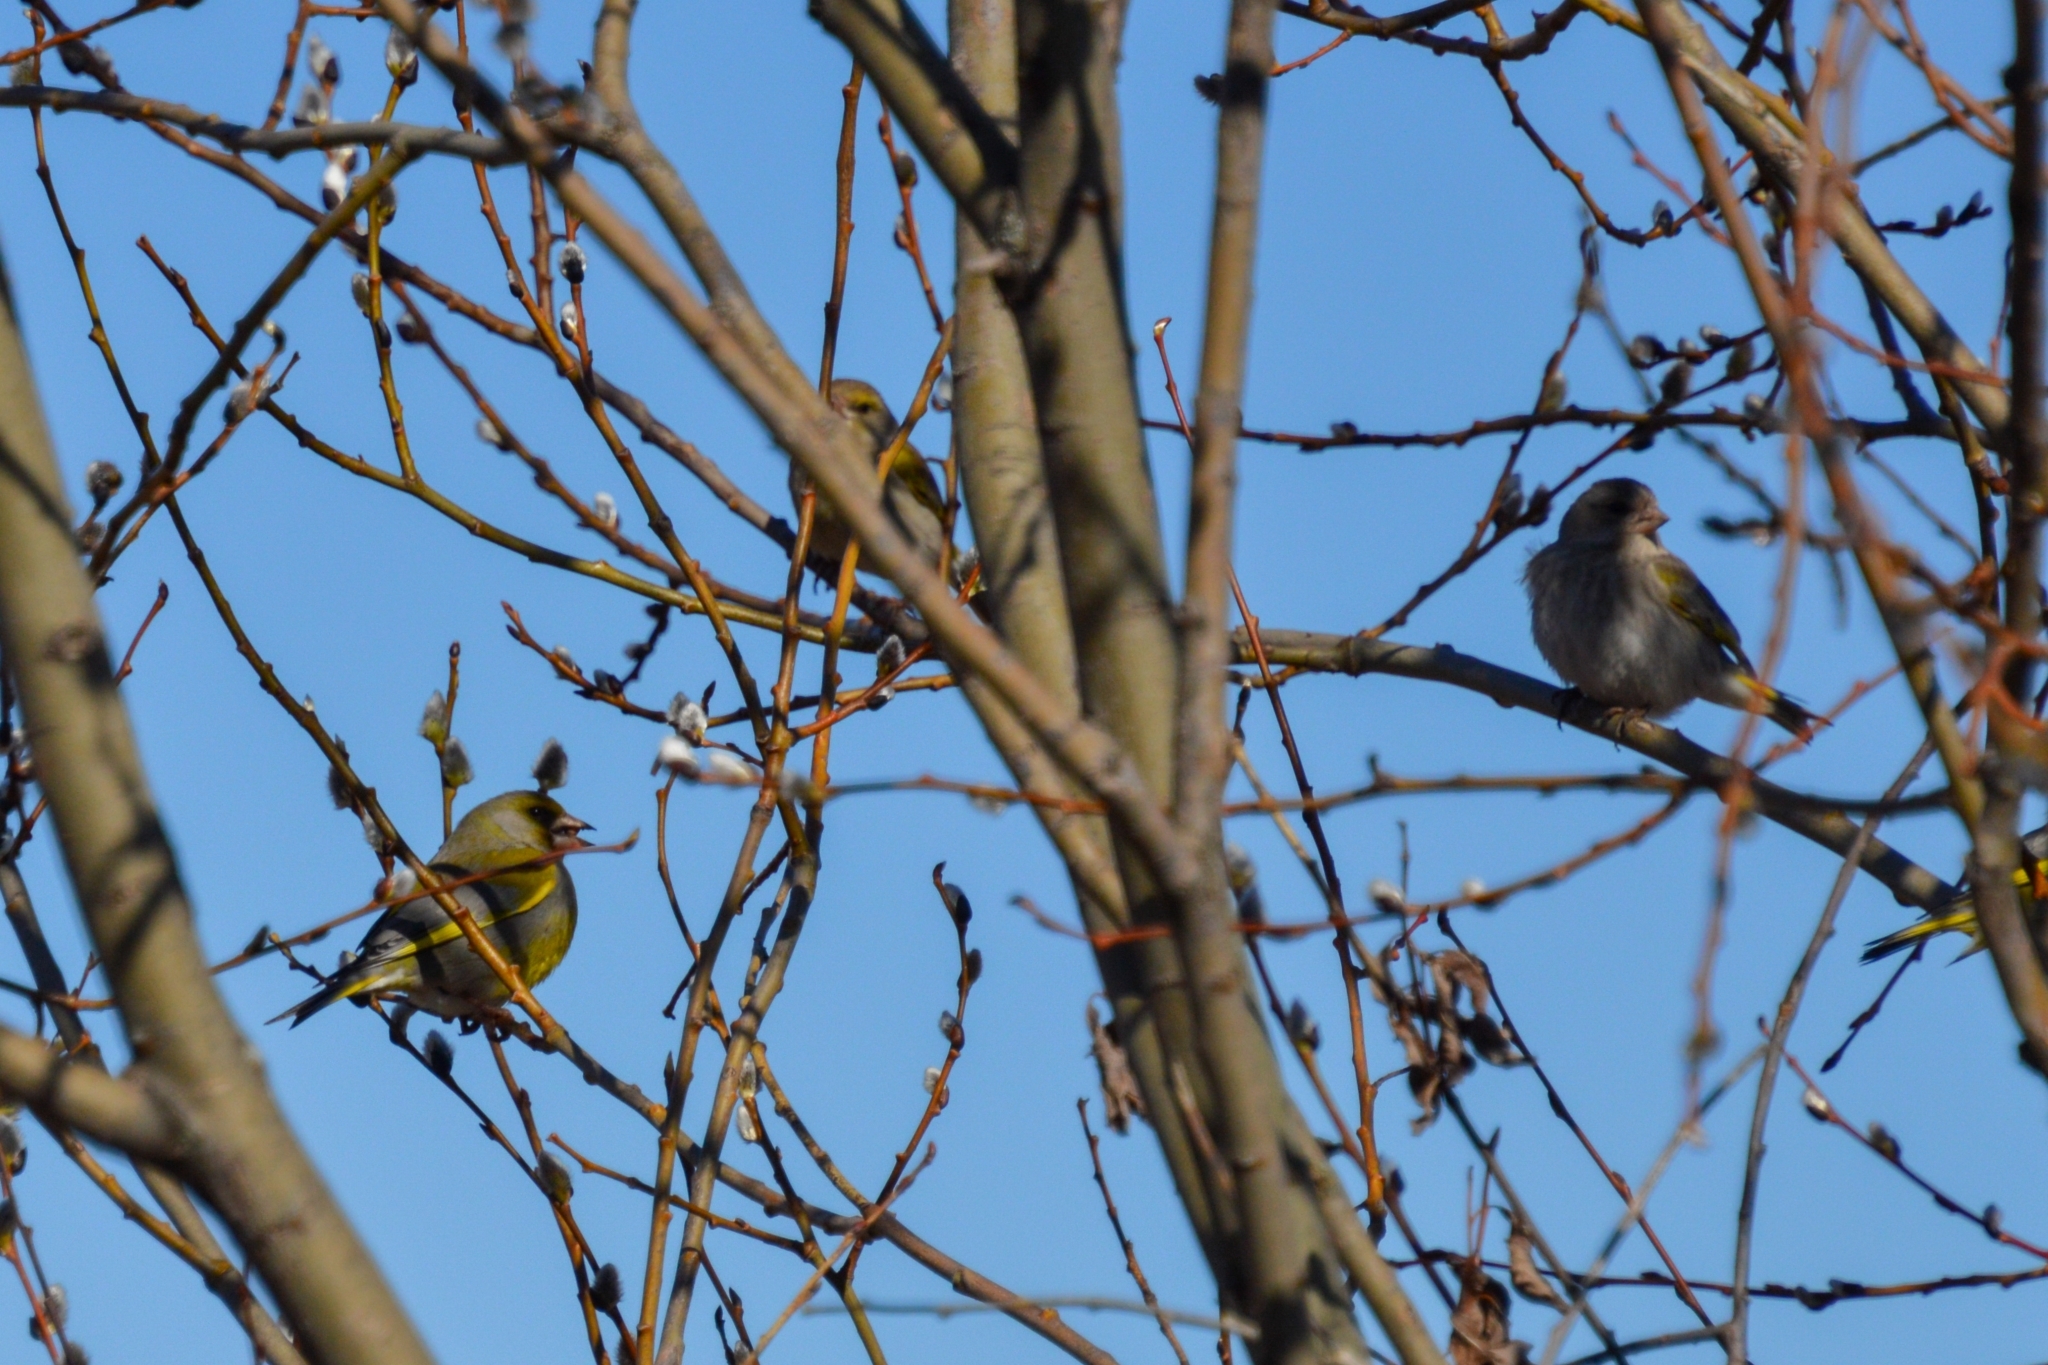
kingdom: Plantae
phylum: Tracheophyta
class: Liliopsida
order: Poales
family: Poaceae
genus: Chloris
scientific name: Chloris chloris
